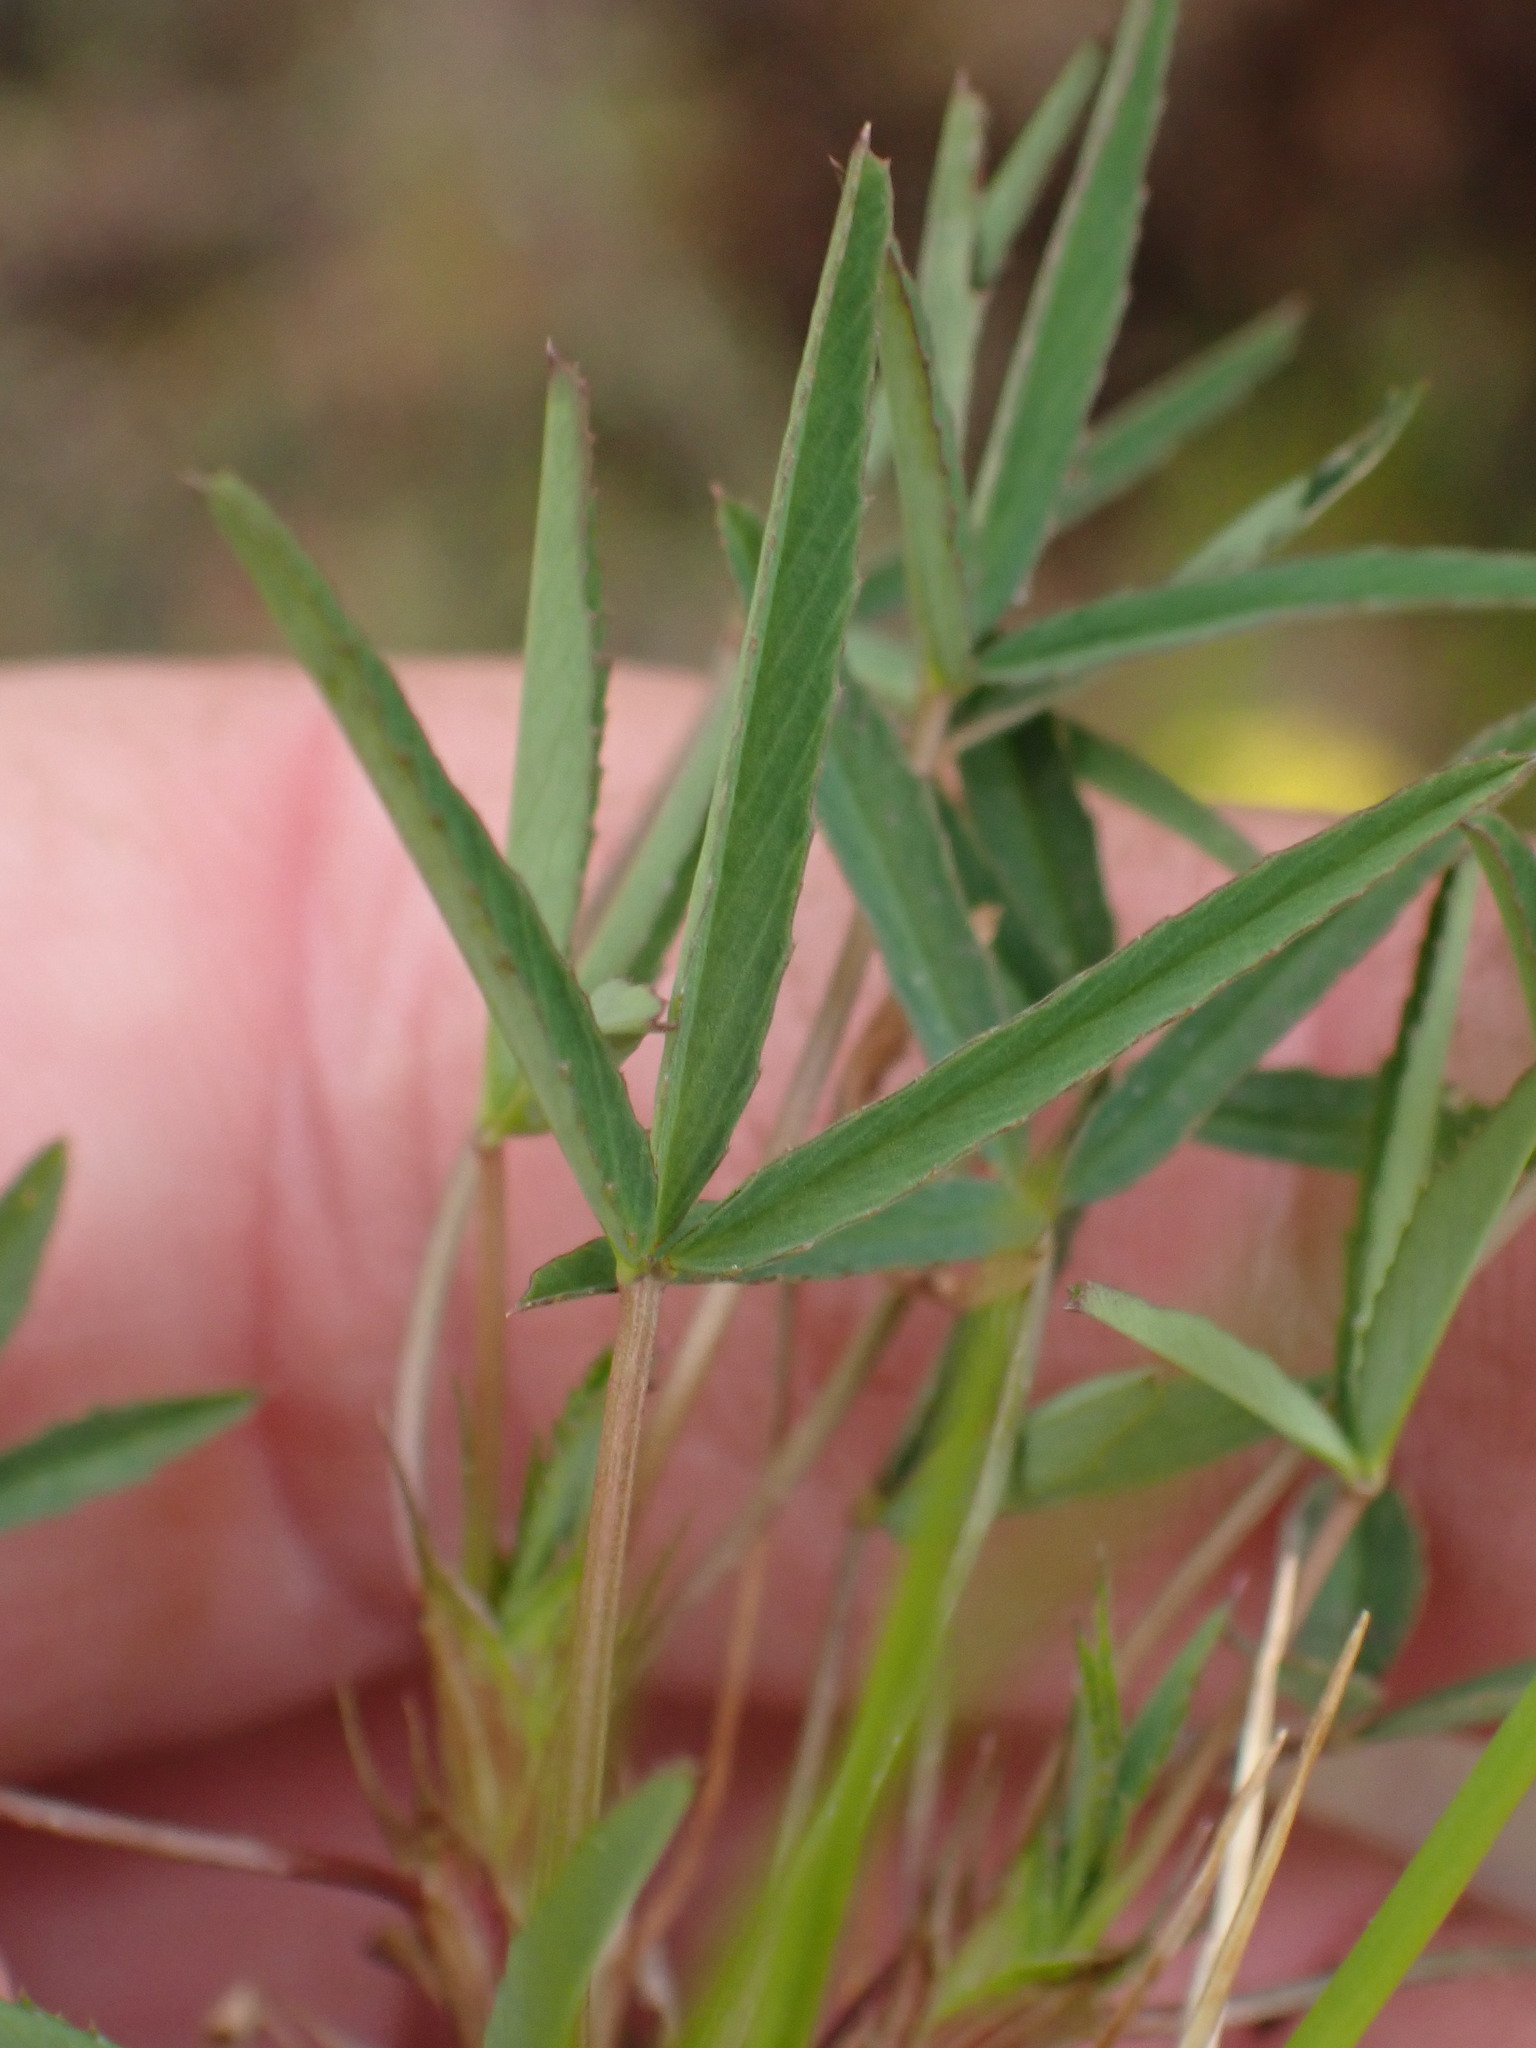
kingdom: Plantae
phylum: Tracheophyta
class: Magnoliopsida
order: Fabales
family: Fabaceae
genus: Trifolium
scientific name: Trifolium willdenovii
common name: Tomcat clover
